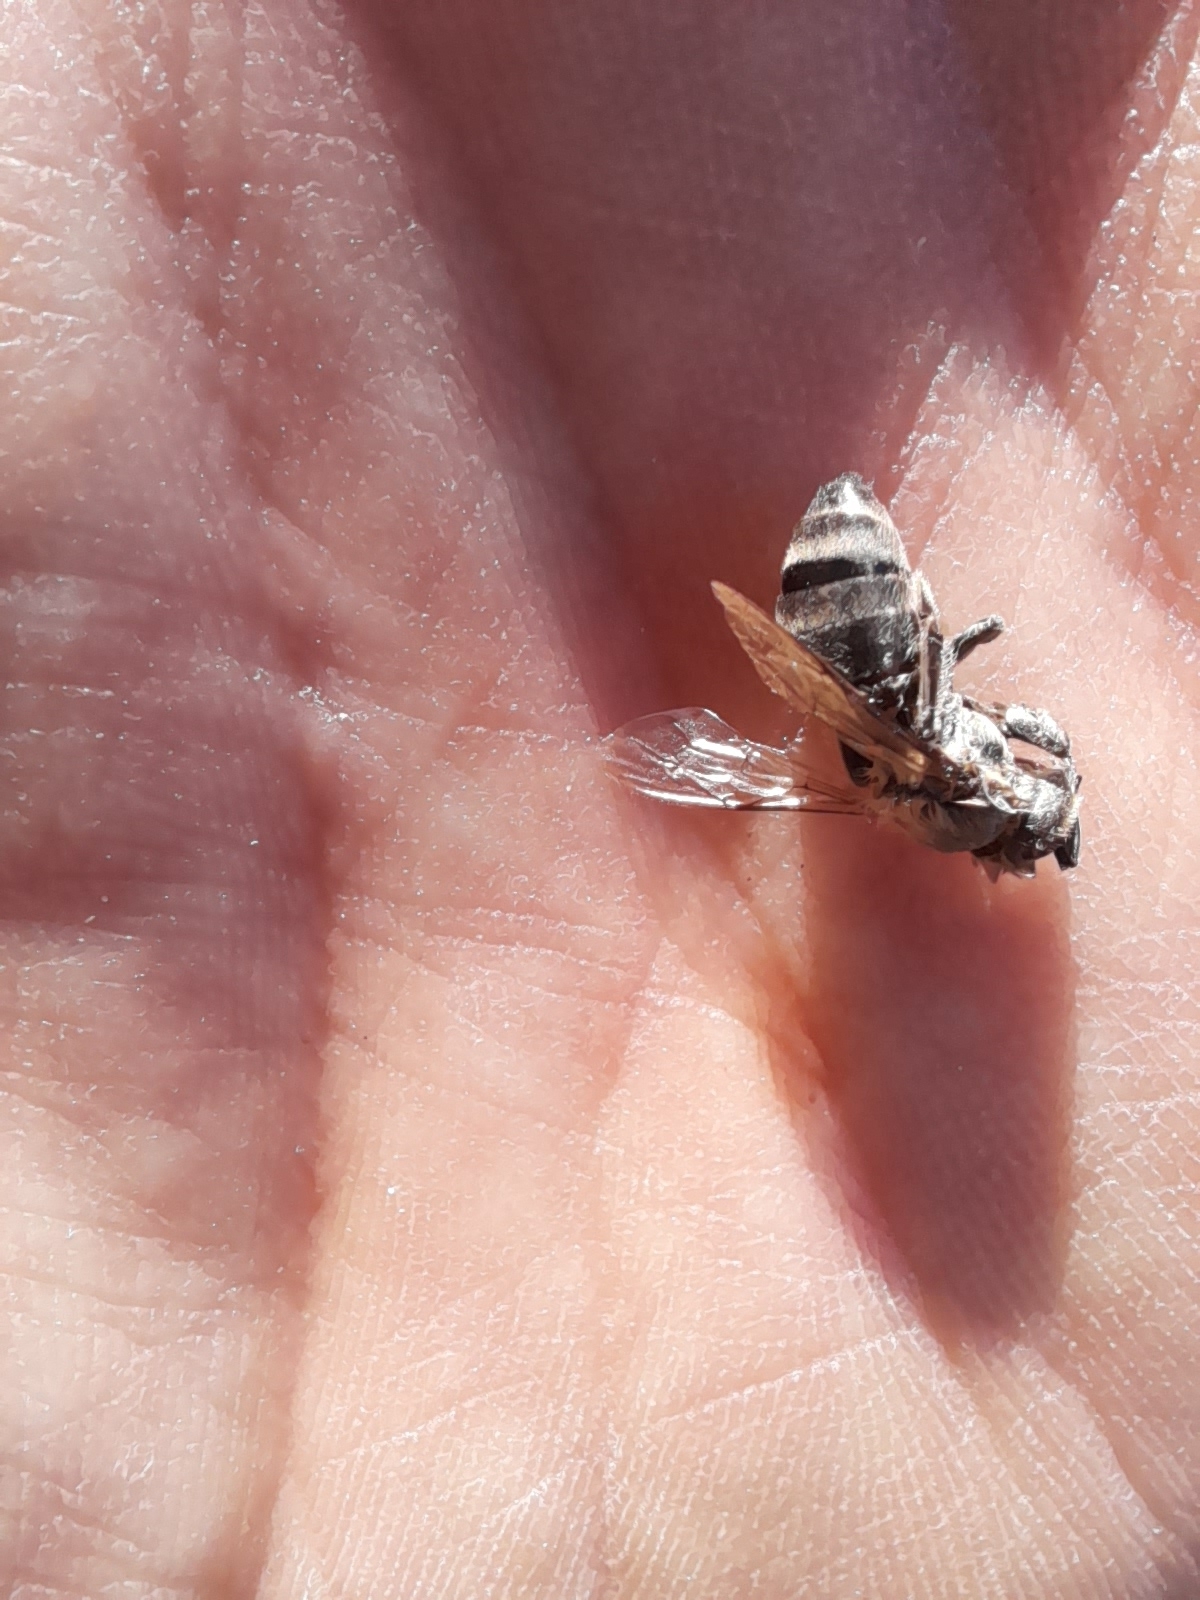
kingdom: Animalia
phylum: Arthropoda
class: Insecta
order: Hymenoptera
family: Apidae
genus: Apis
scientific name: Apis mellifera
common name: Honey bee
